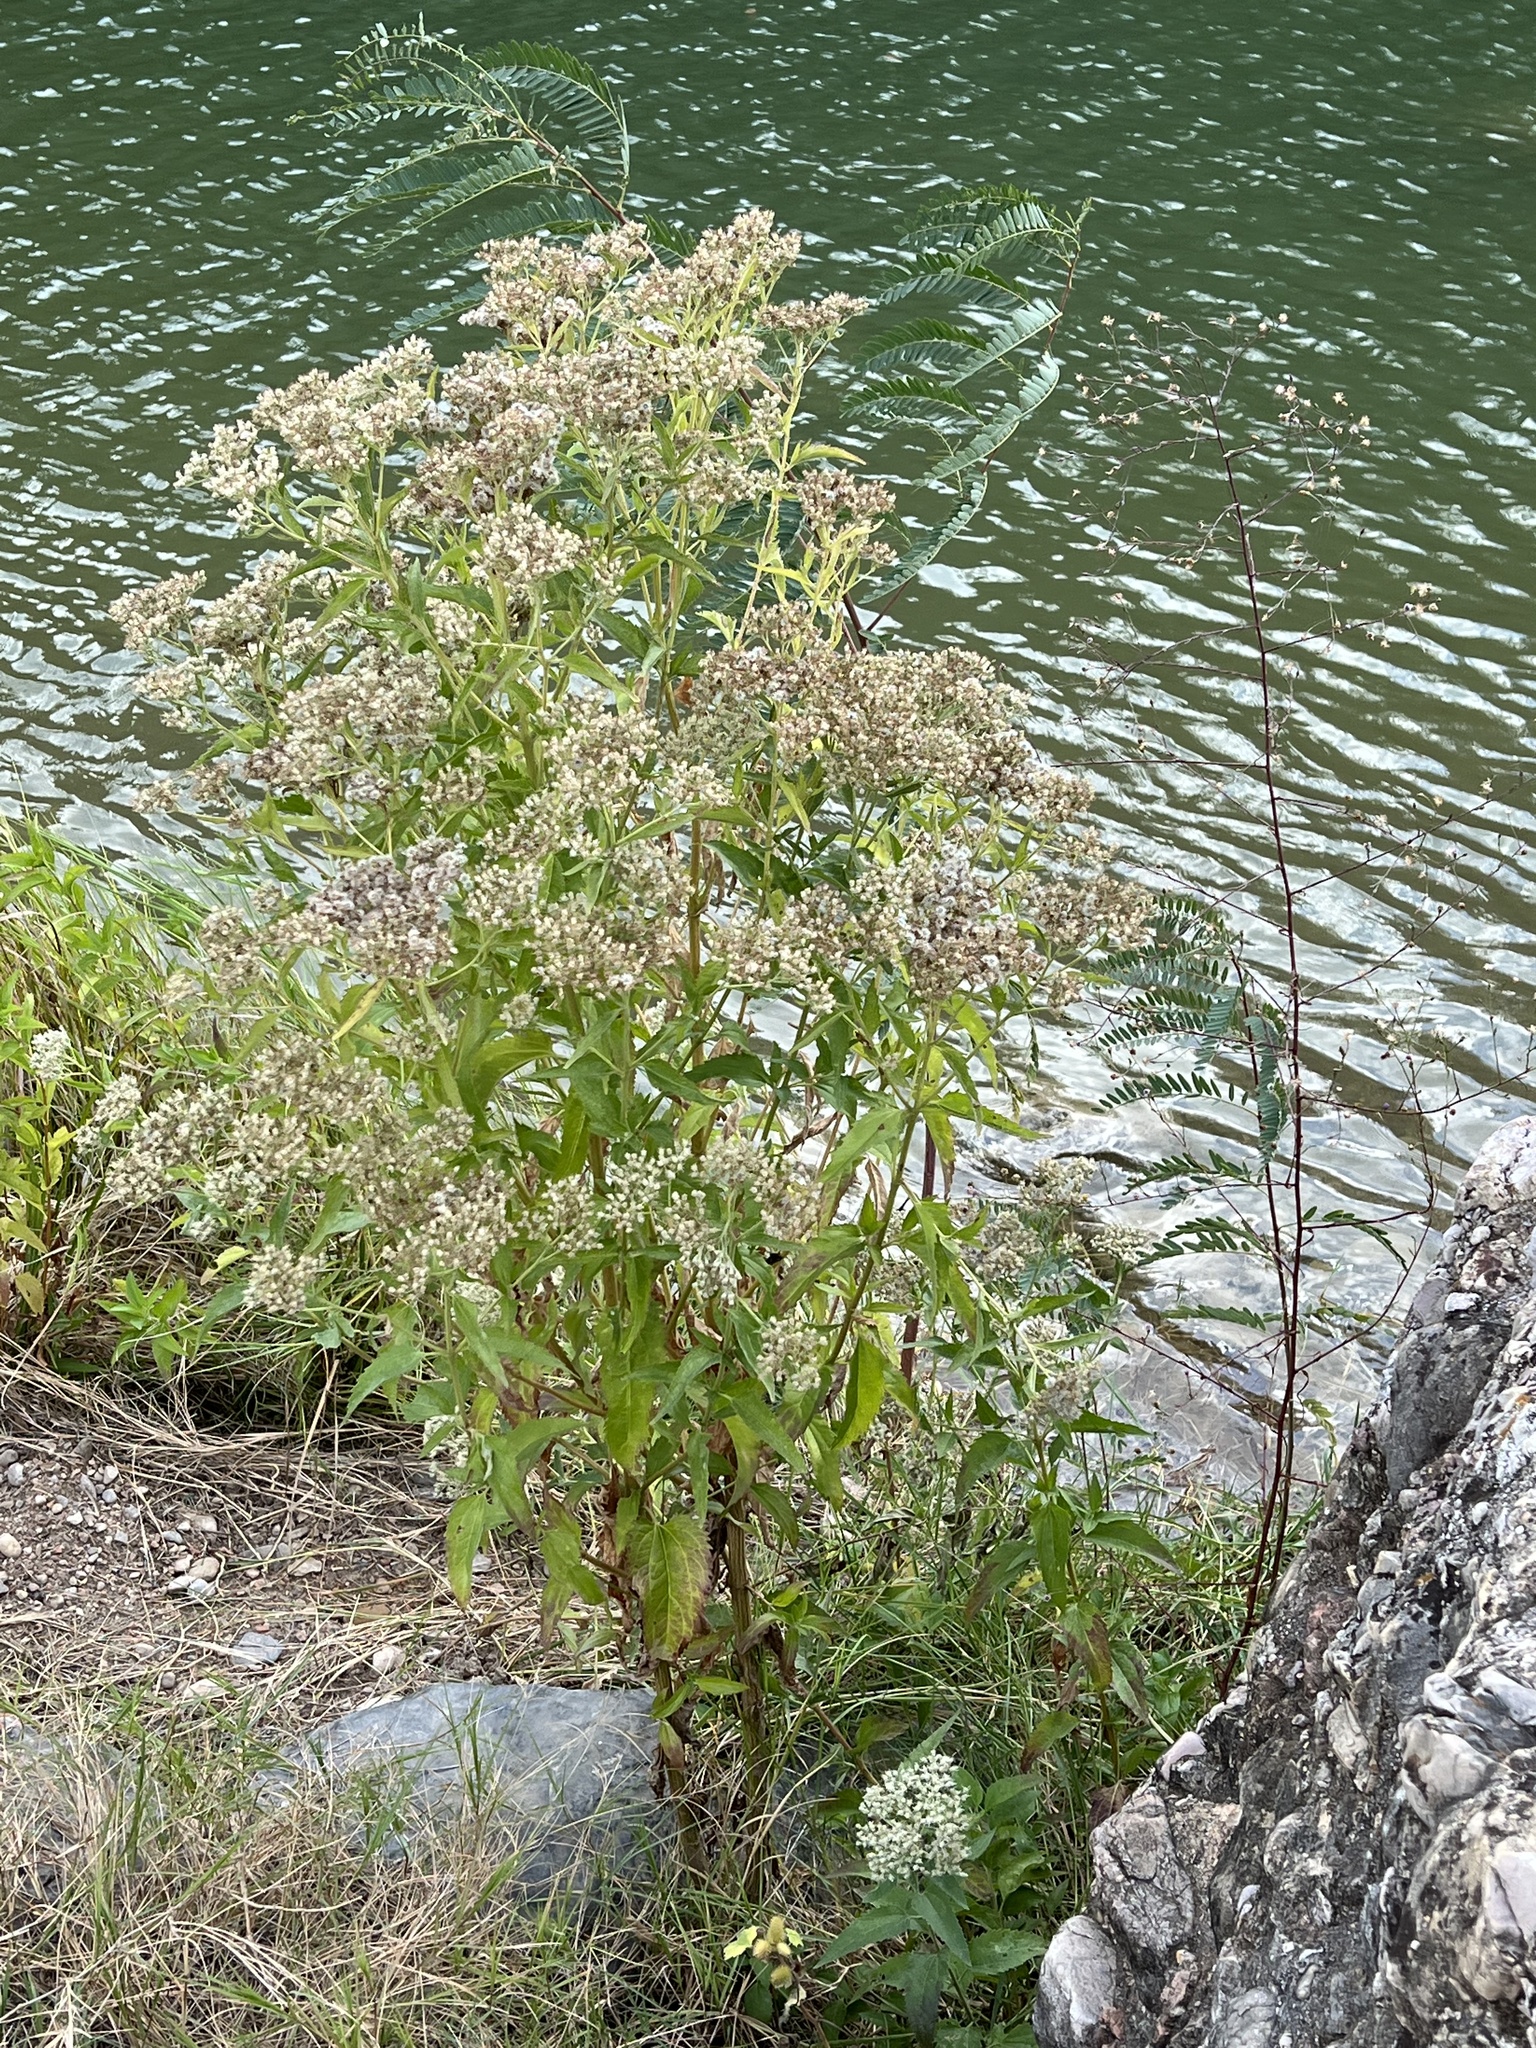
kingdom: Plantae
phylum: Tracheophyta
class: Magnoliopsida
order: Asterales
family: Asteraceae
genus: Eupatorium
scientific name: Eupatorium serotinum
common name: Late boneset
